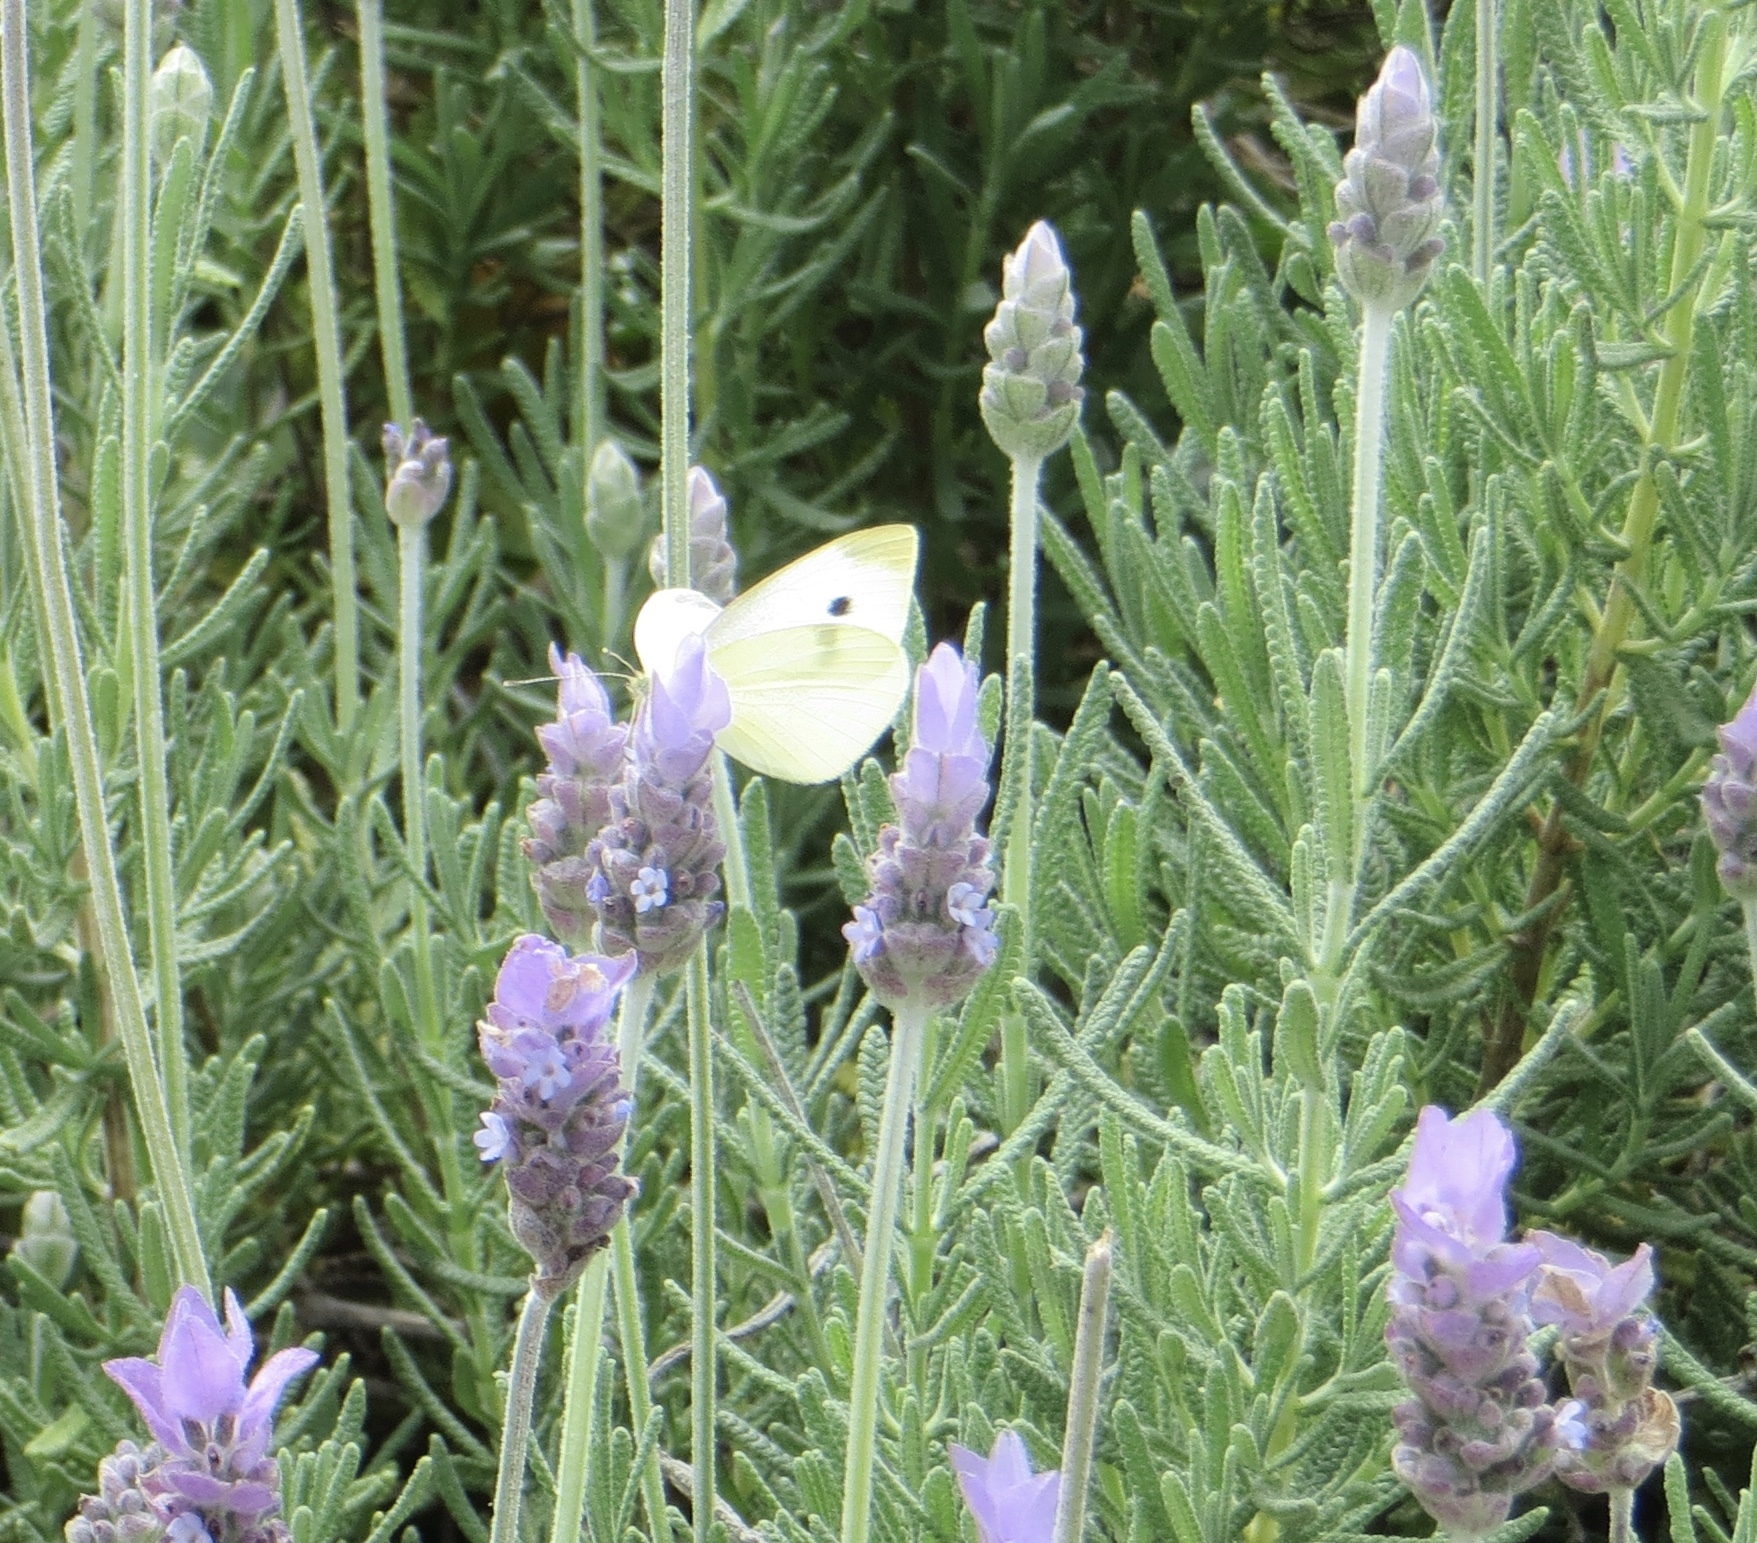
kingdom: Animalia
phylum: Arthropoda
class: Insecta
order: Lepidoptera
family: Pieridae
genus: Pieris
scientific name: Pieris rapae
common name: Small white
